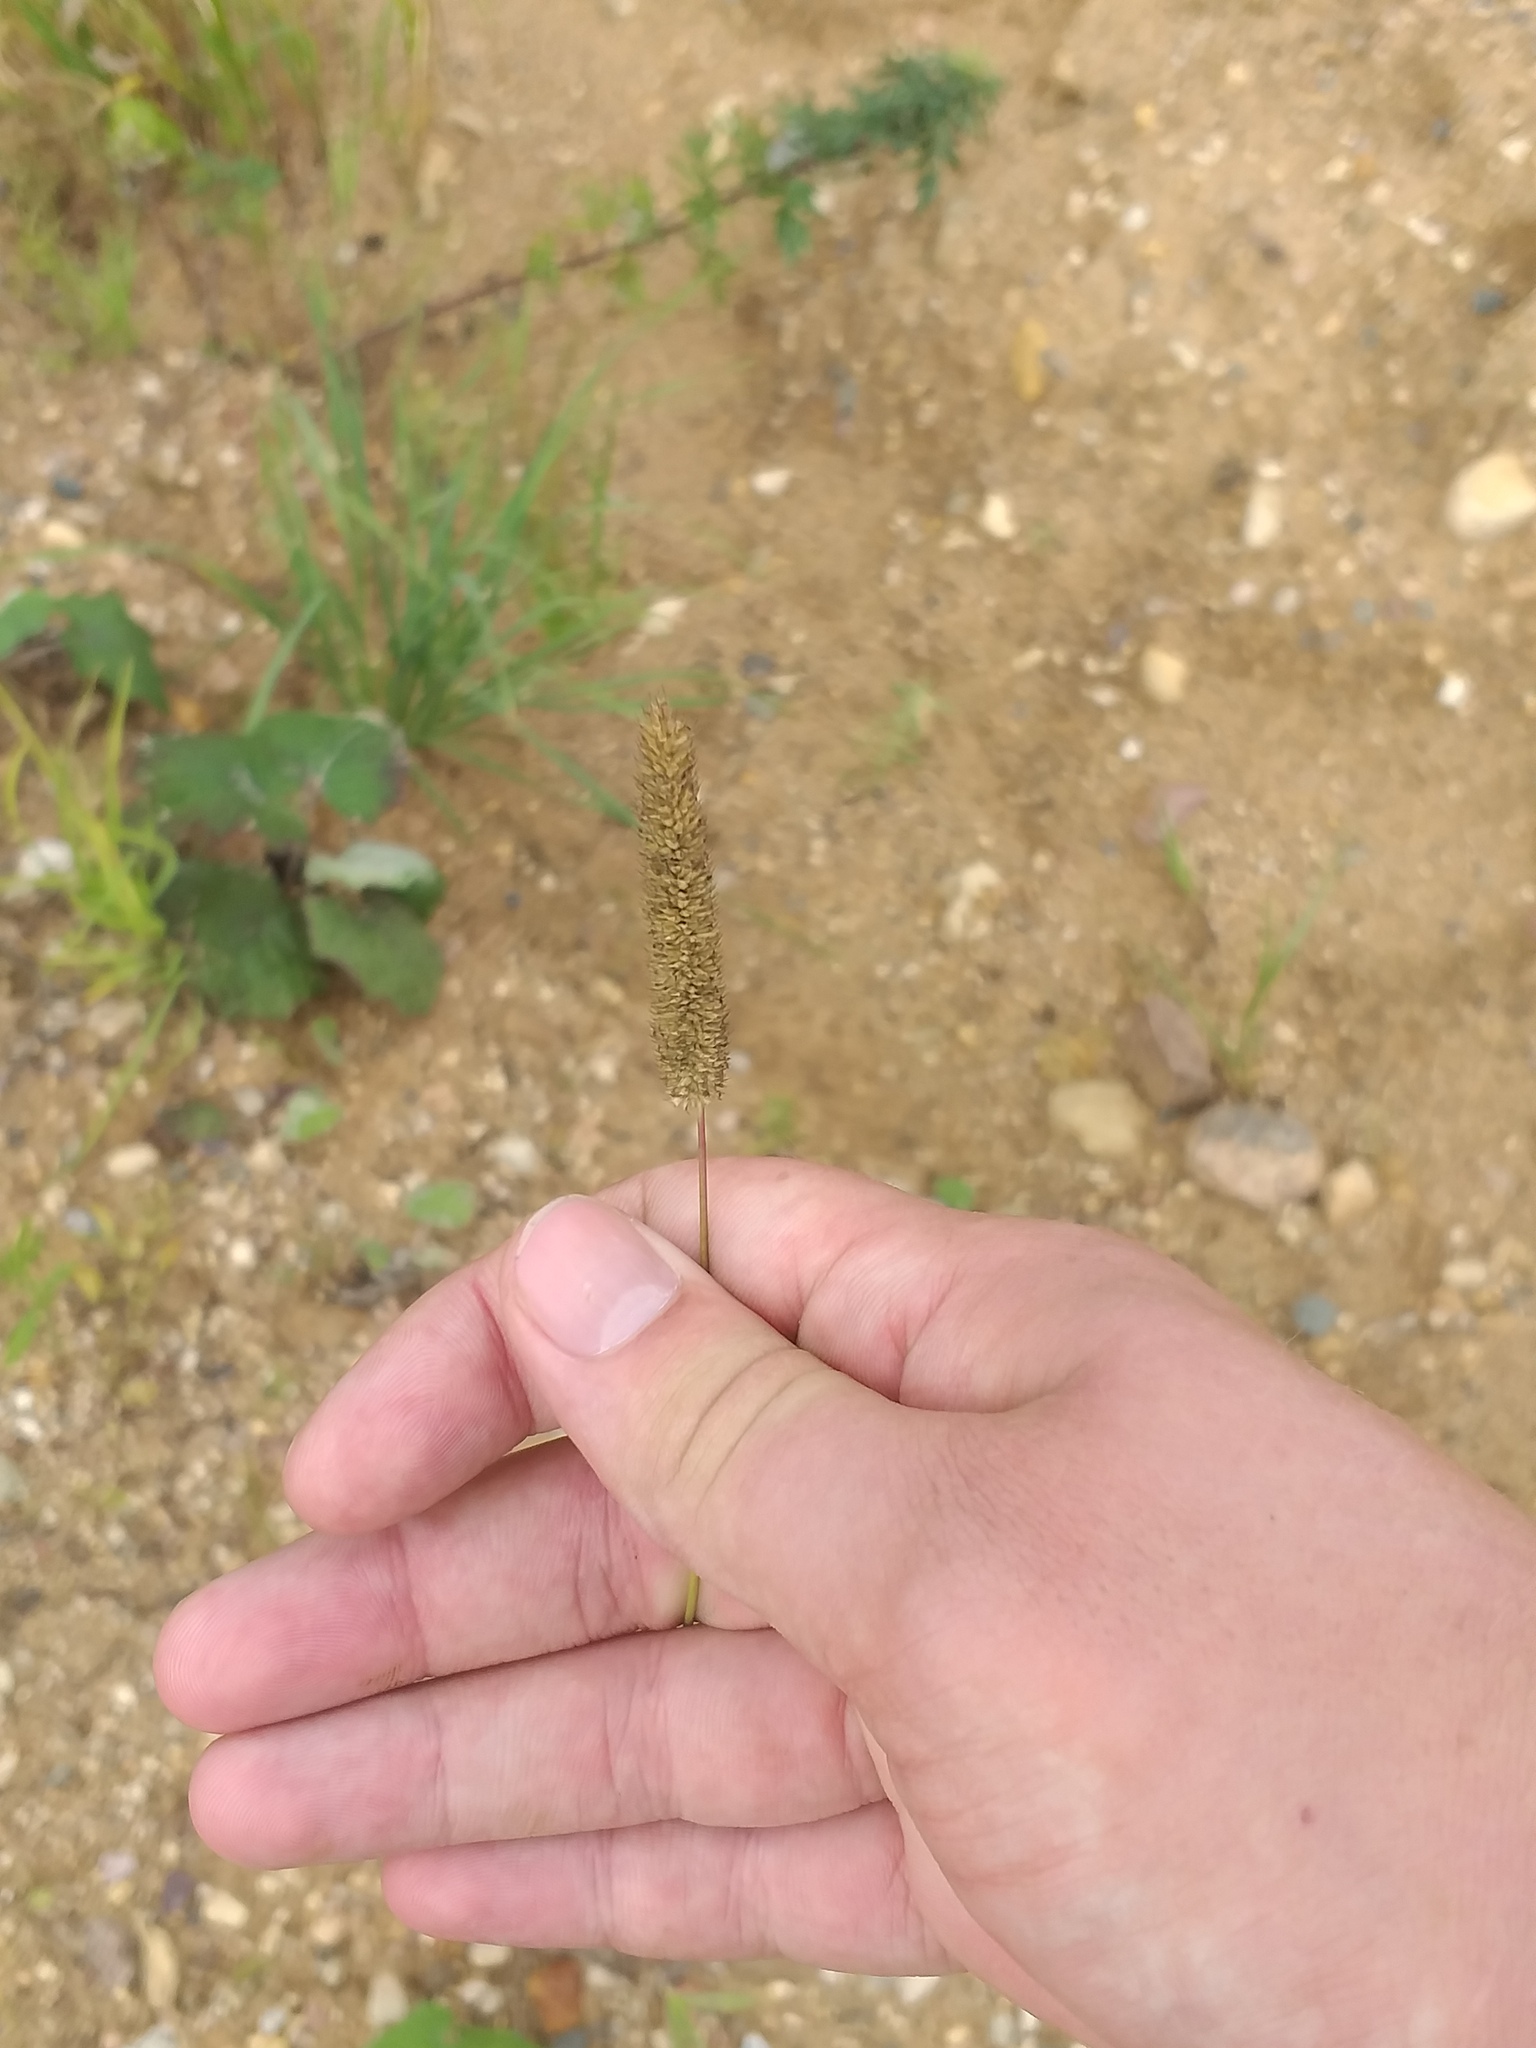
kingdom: Plantae
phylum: Tracheophyta
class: Liliopsida
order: Poales
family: Poaceae
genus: Phleum
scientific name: Phleum pratense
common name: Timothy grass
